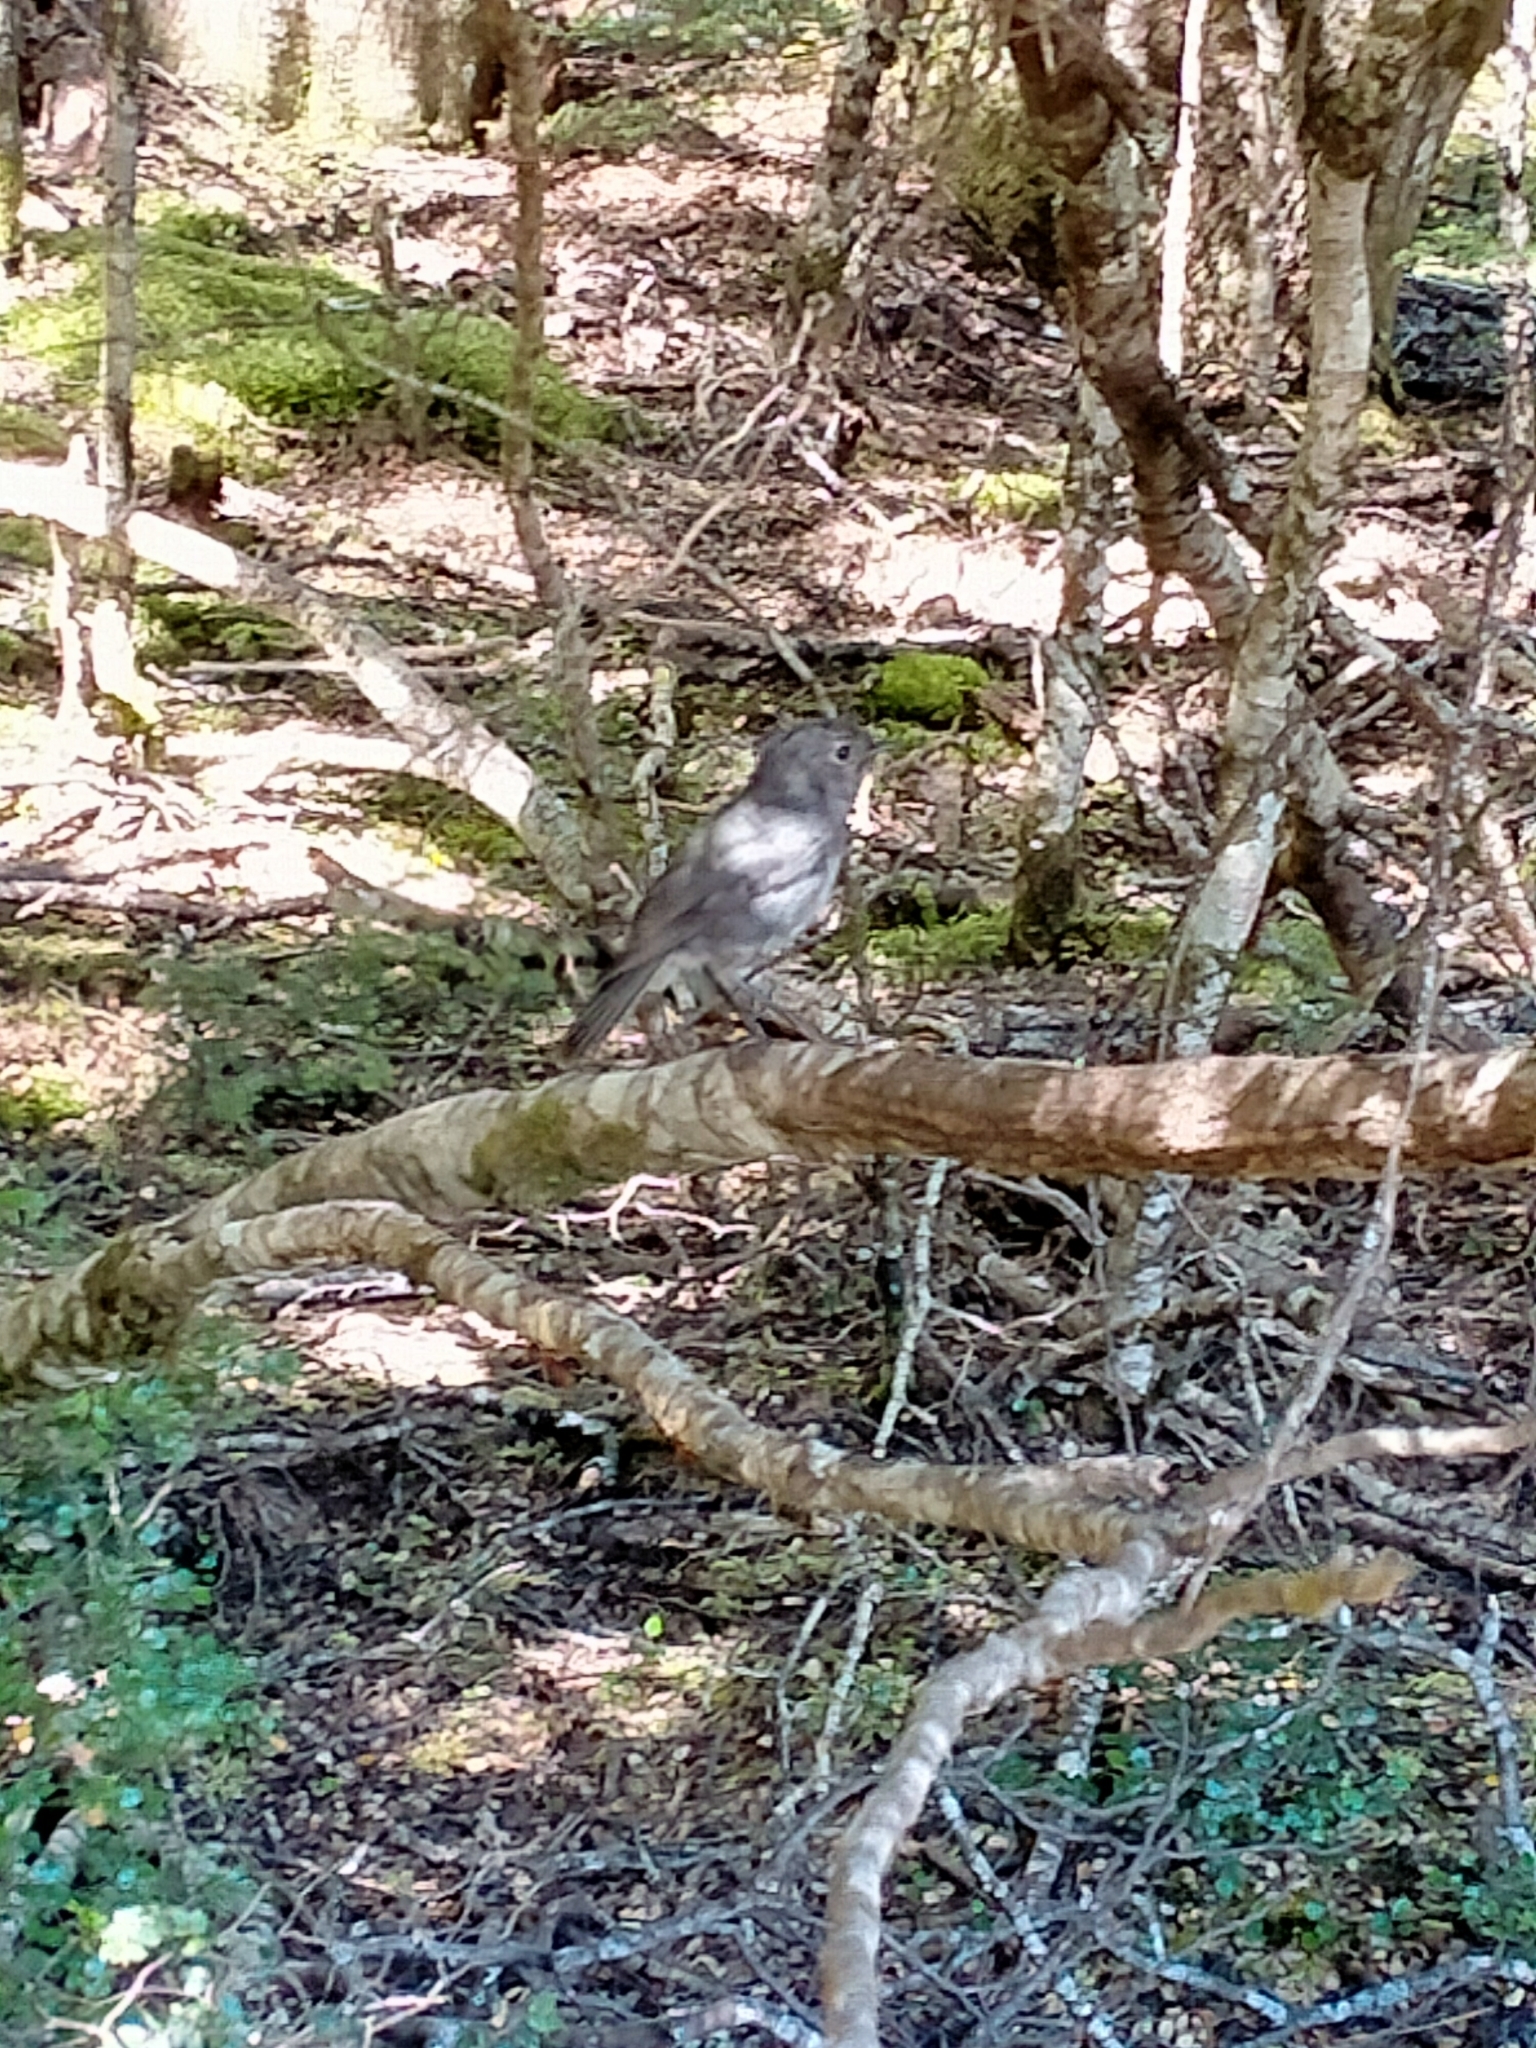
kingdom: Animalia
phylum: Chordata
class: Aves
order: Passeriformes
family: Petroicidae
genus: Petroica
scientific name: Petroica australis
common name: New zealand robin
